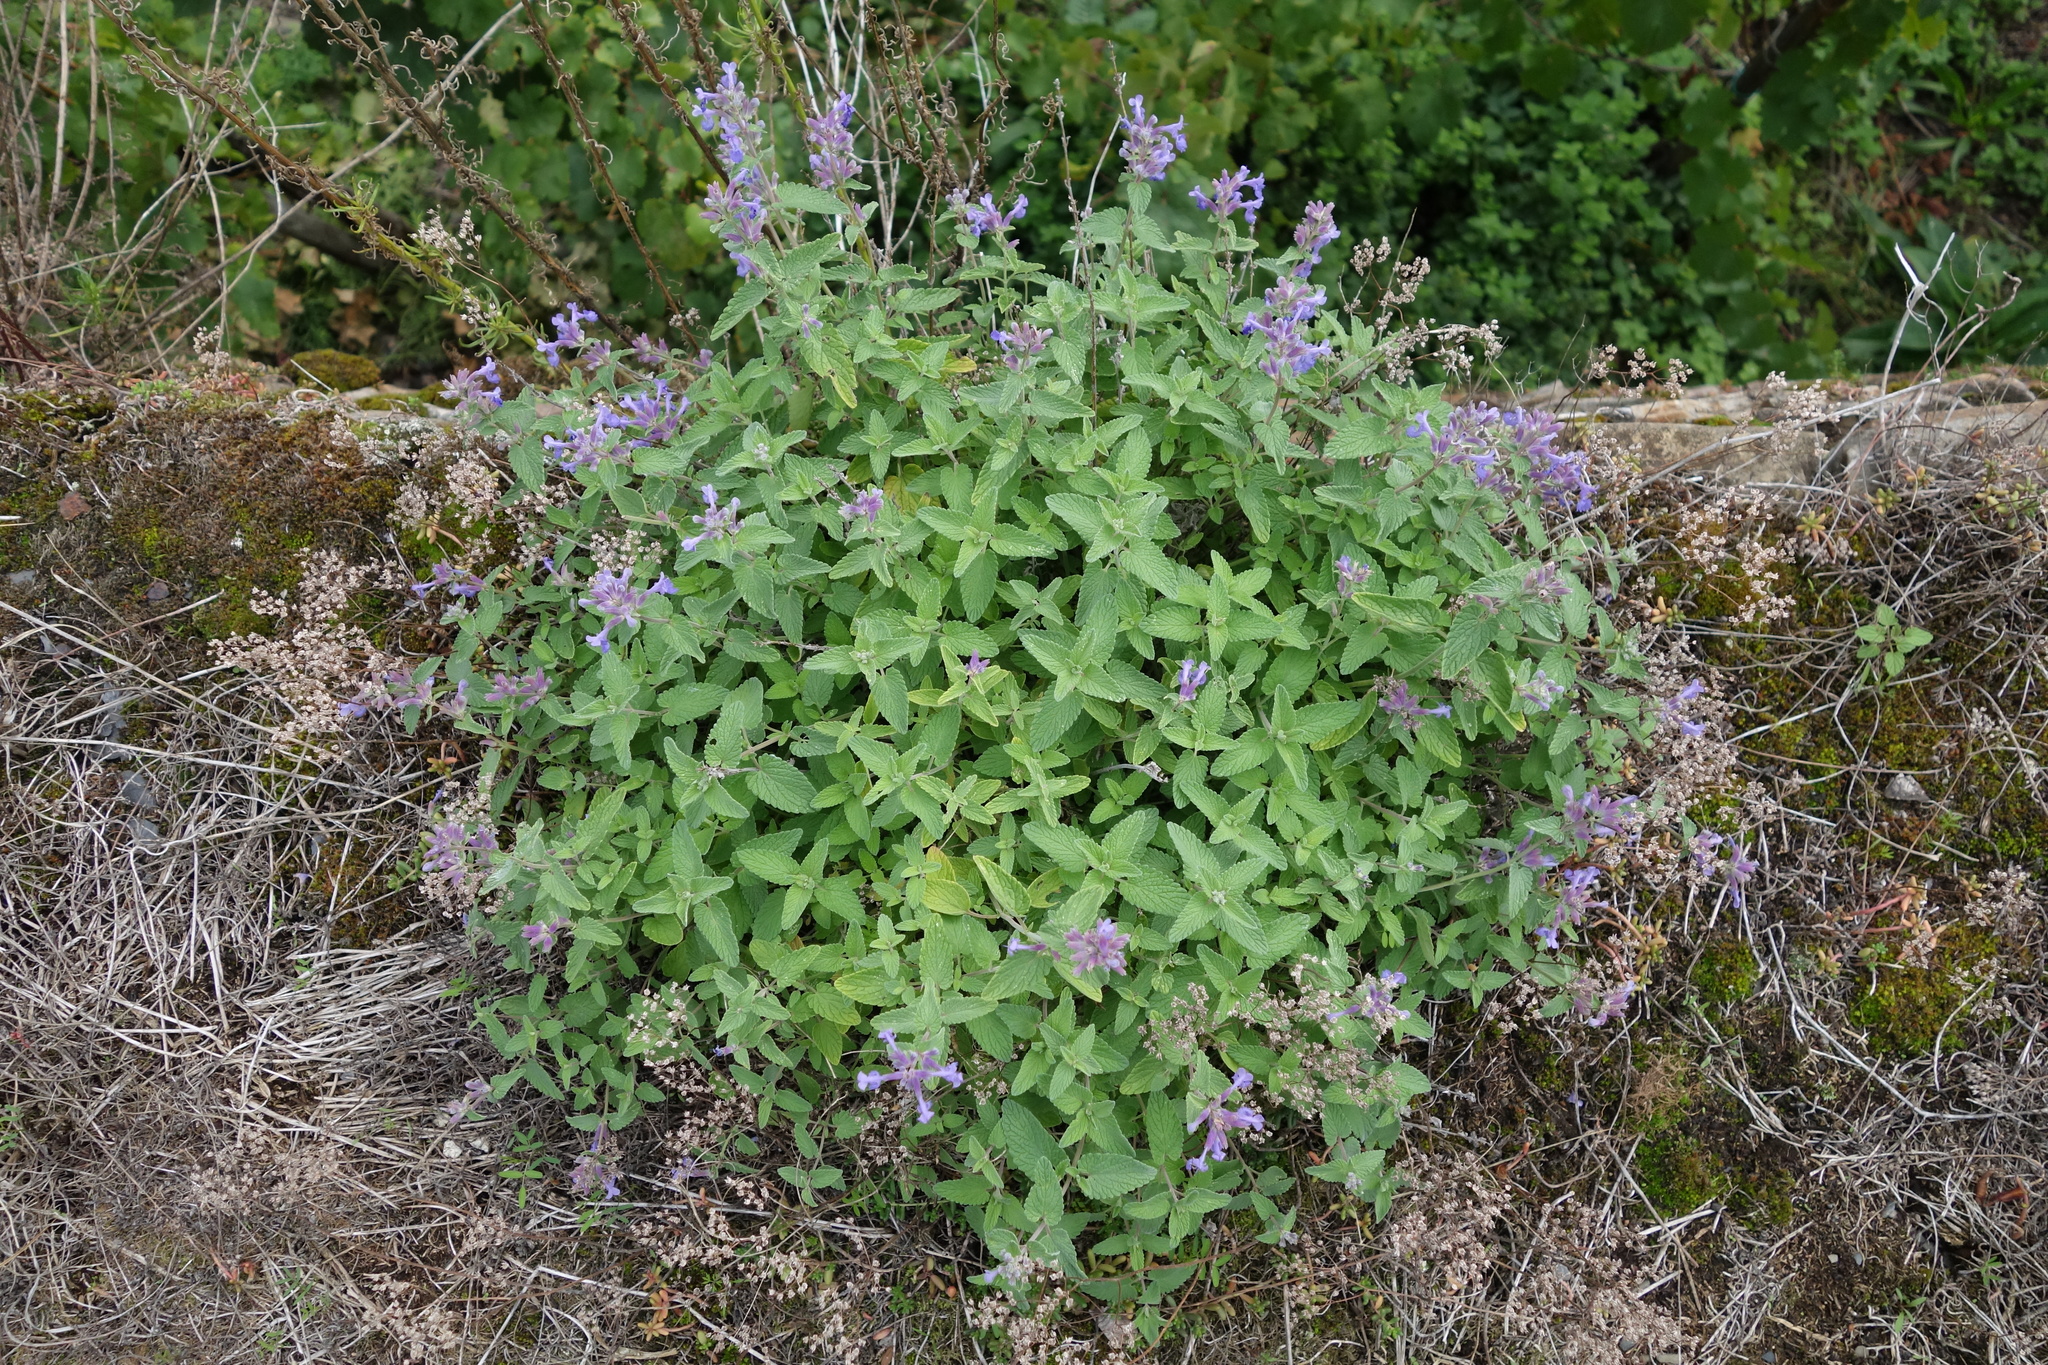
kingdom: Plantae
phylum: Tracheophyta
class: Magnoliopsida
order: Lamiales
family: Lamiaceae
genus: Nepeta
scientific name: Nepeta racemosa
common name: Raceme catnip
